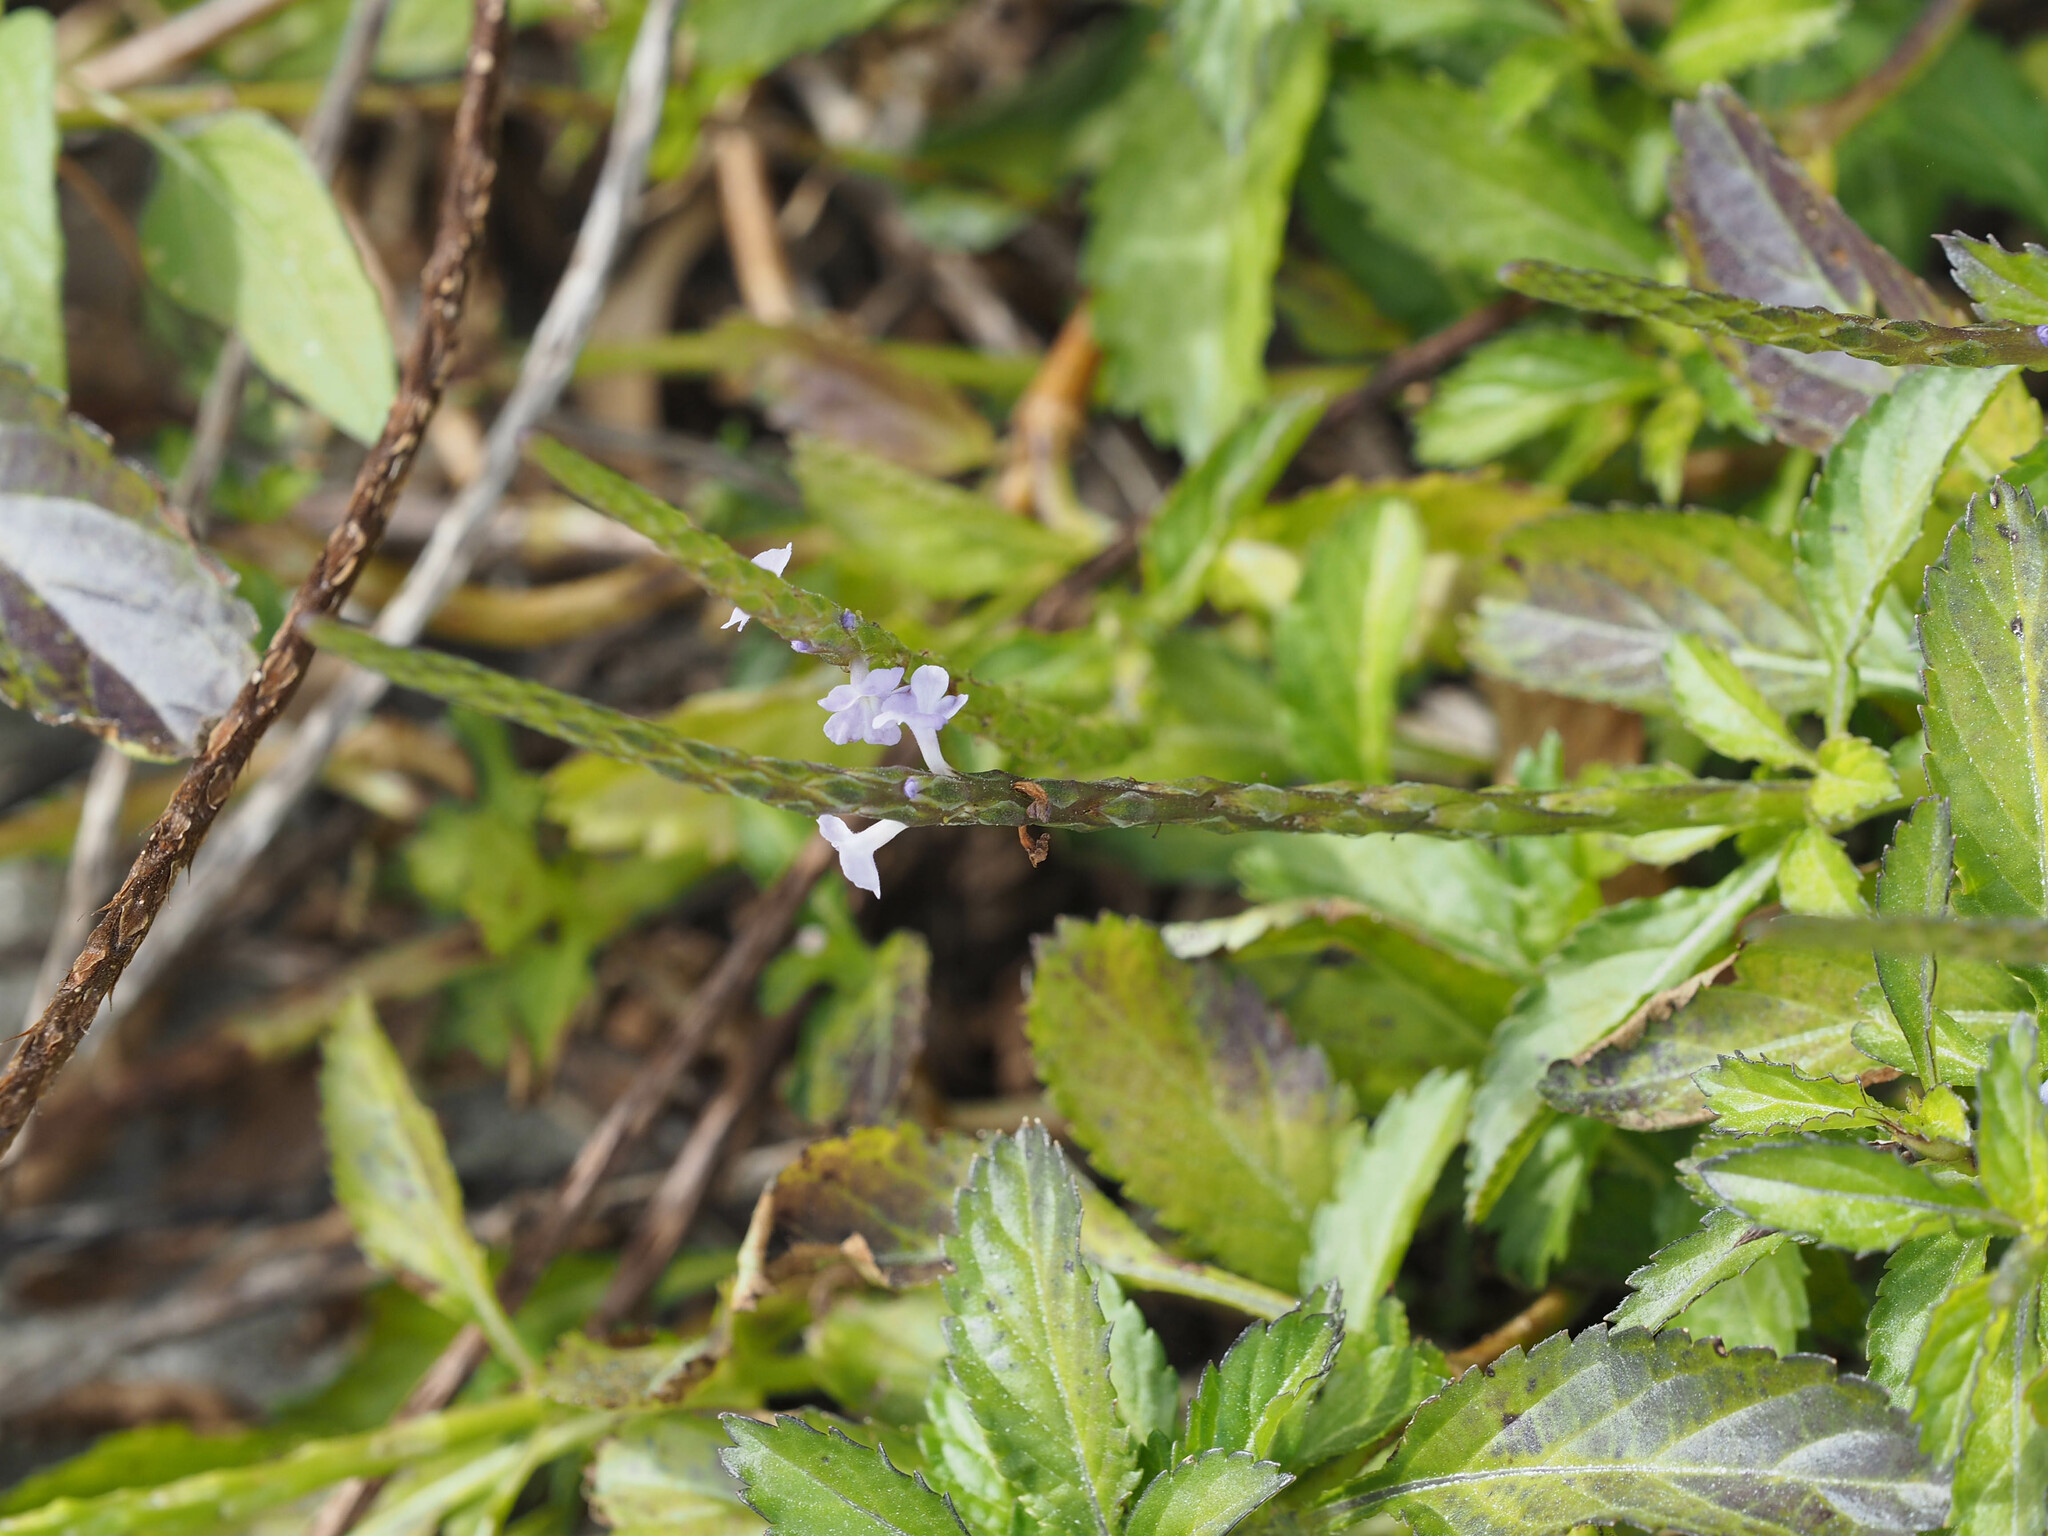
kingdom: Plantae
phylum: Tracheophyta
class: Magnoliopsida
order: Lamiales
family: Verbenaceae
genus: Stachytarpheta
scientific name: Stachytarpheta jamaicensis
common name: Light-blue snakeweed
